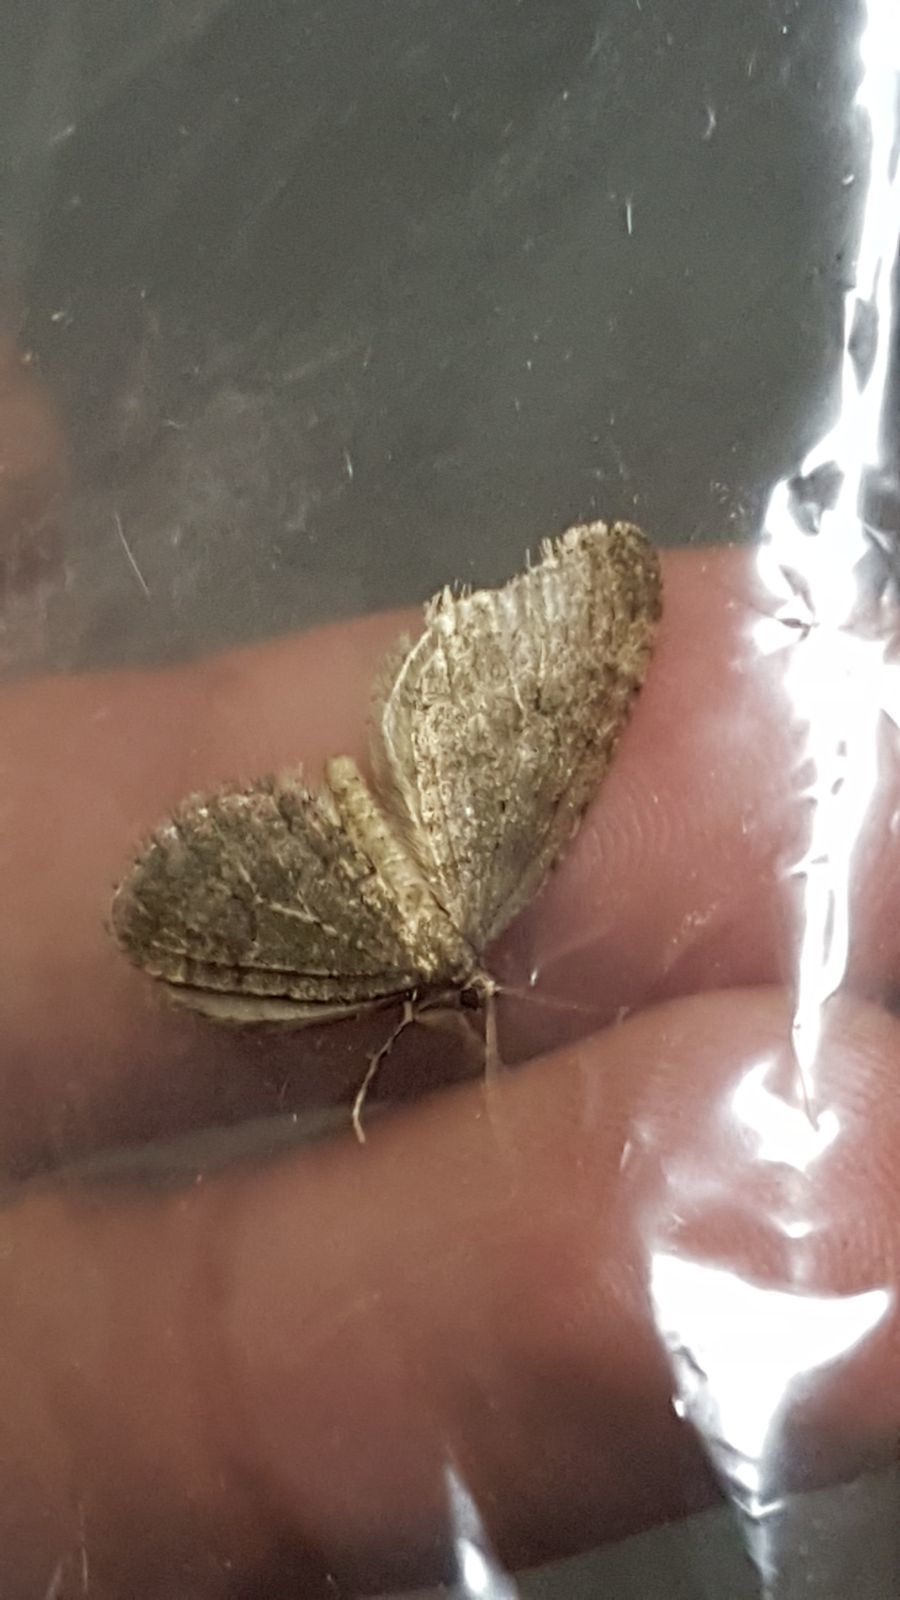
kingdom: Animalia
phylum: Arthropoda
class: Insecta
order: Lepidoptera
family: Geometridae
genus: Epirrita
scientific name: Epirrita
